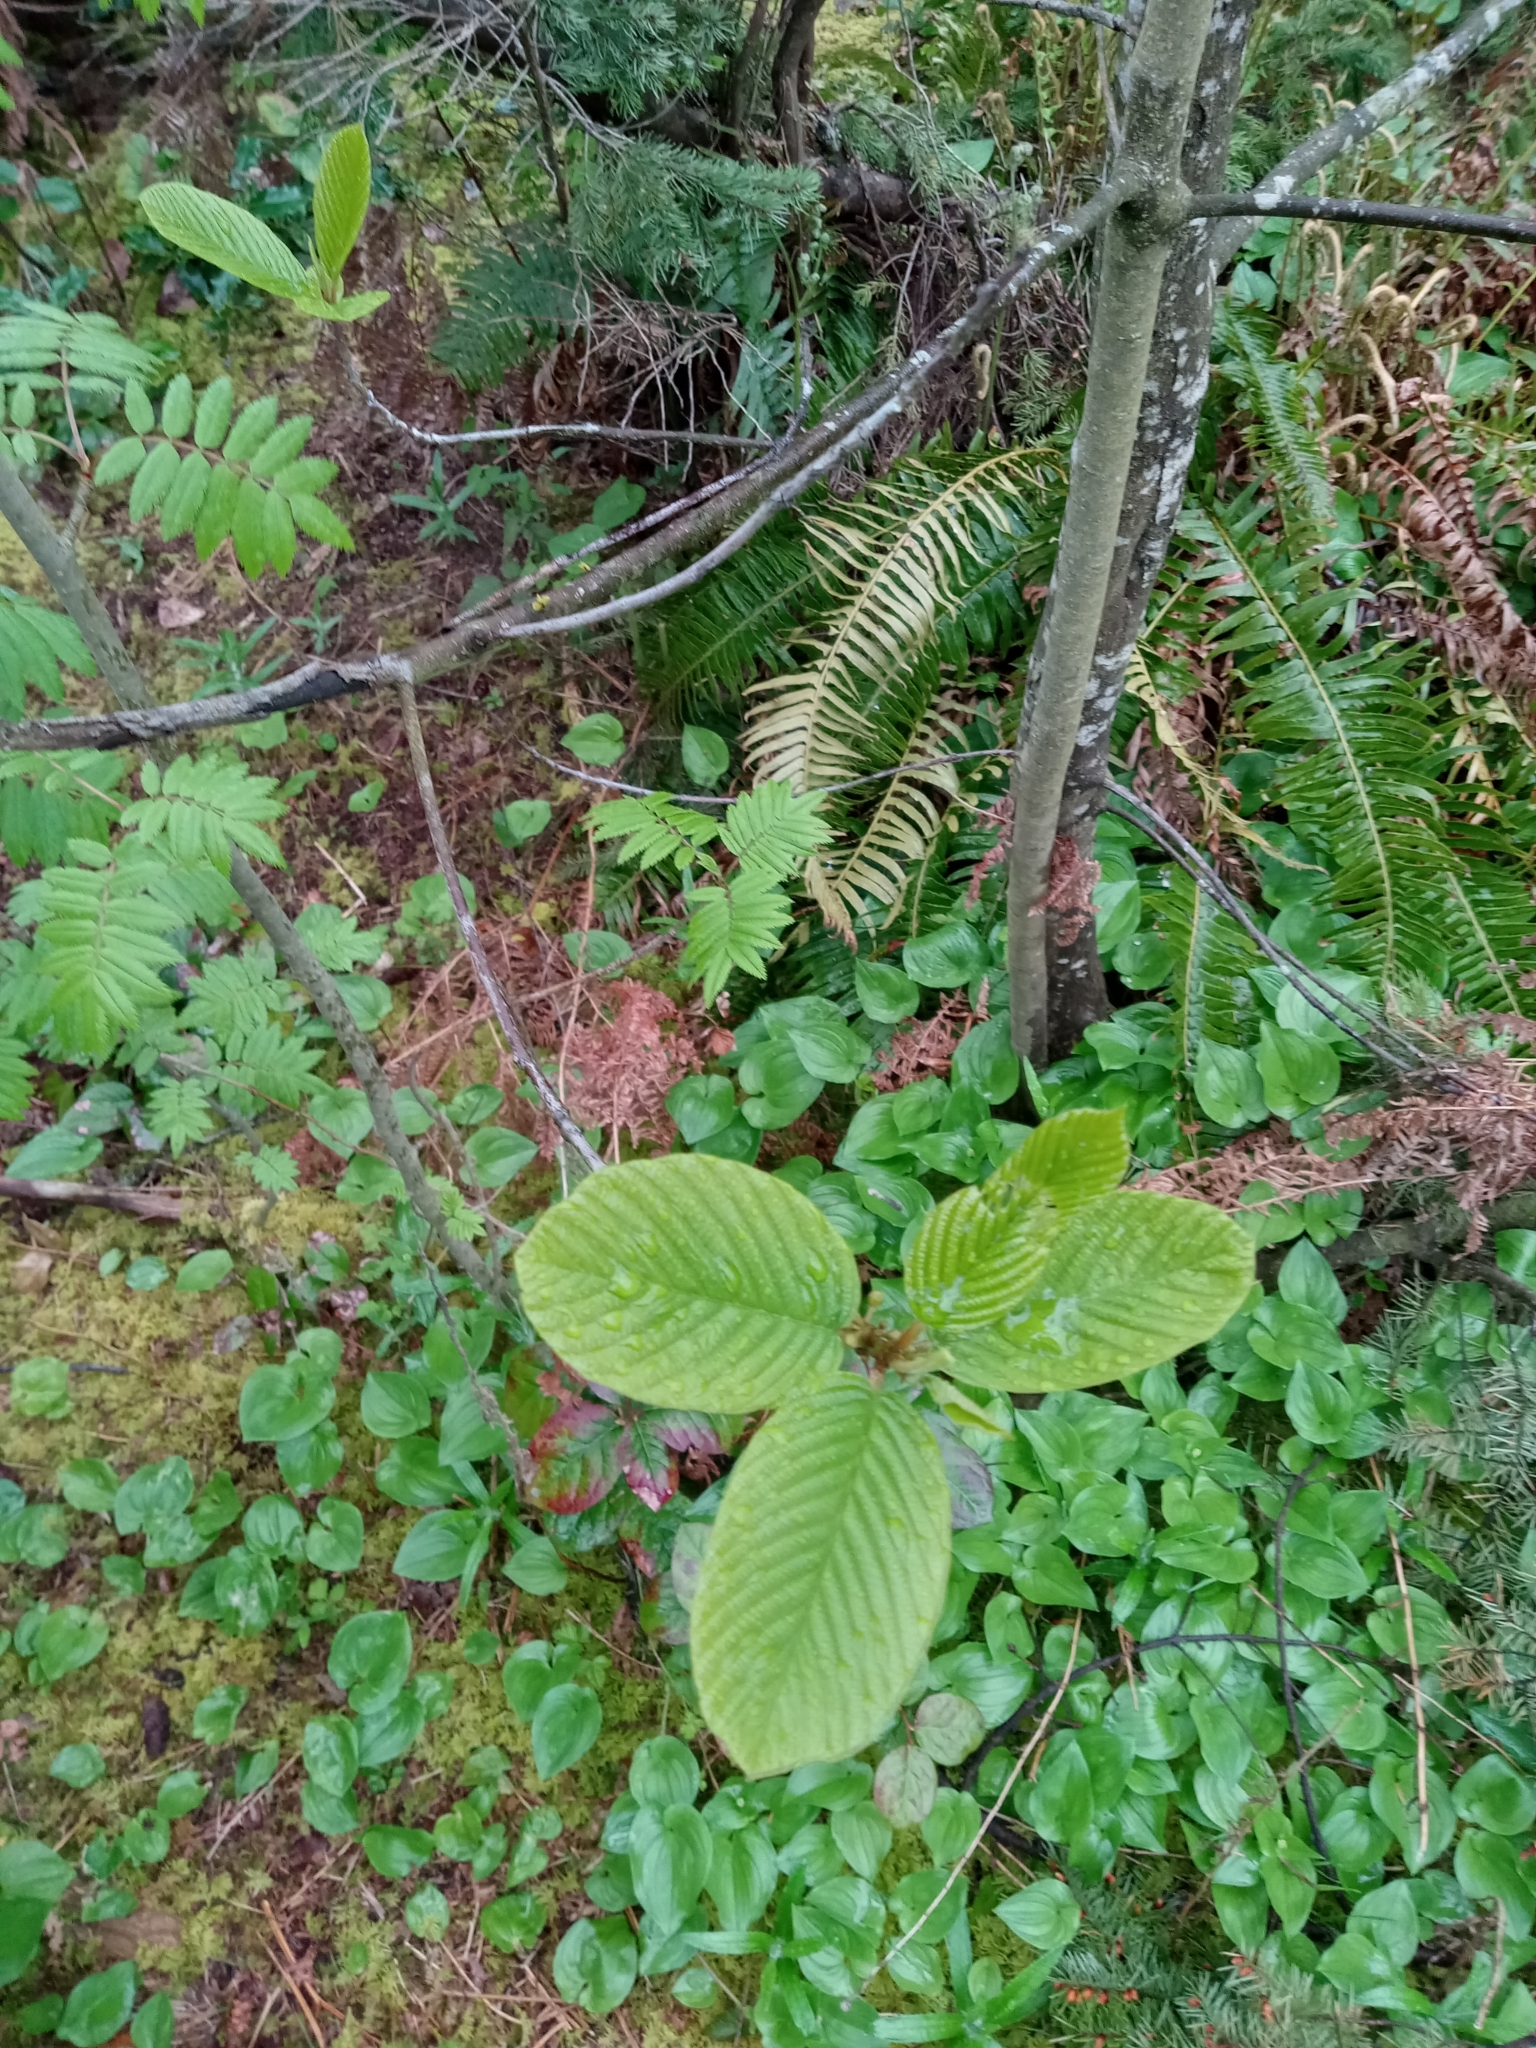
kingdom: Plantae
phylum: Tracheophyta
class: Magnoliopsida
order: Rosales
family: Rhamnaceae
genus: Frangula
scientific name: Frangula purshiana
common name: Cascara buckthorn
